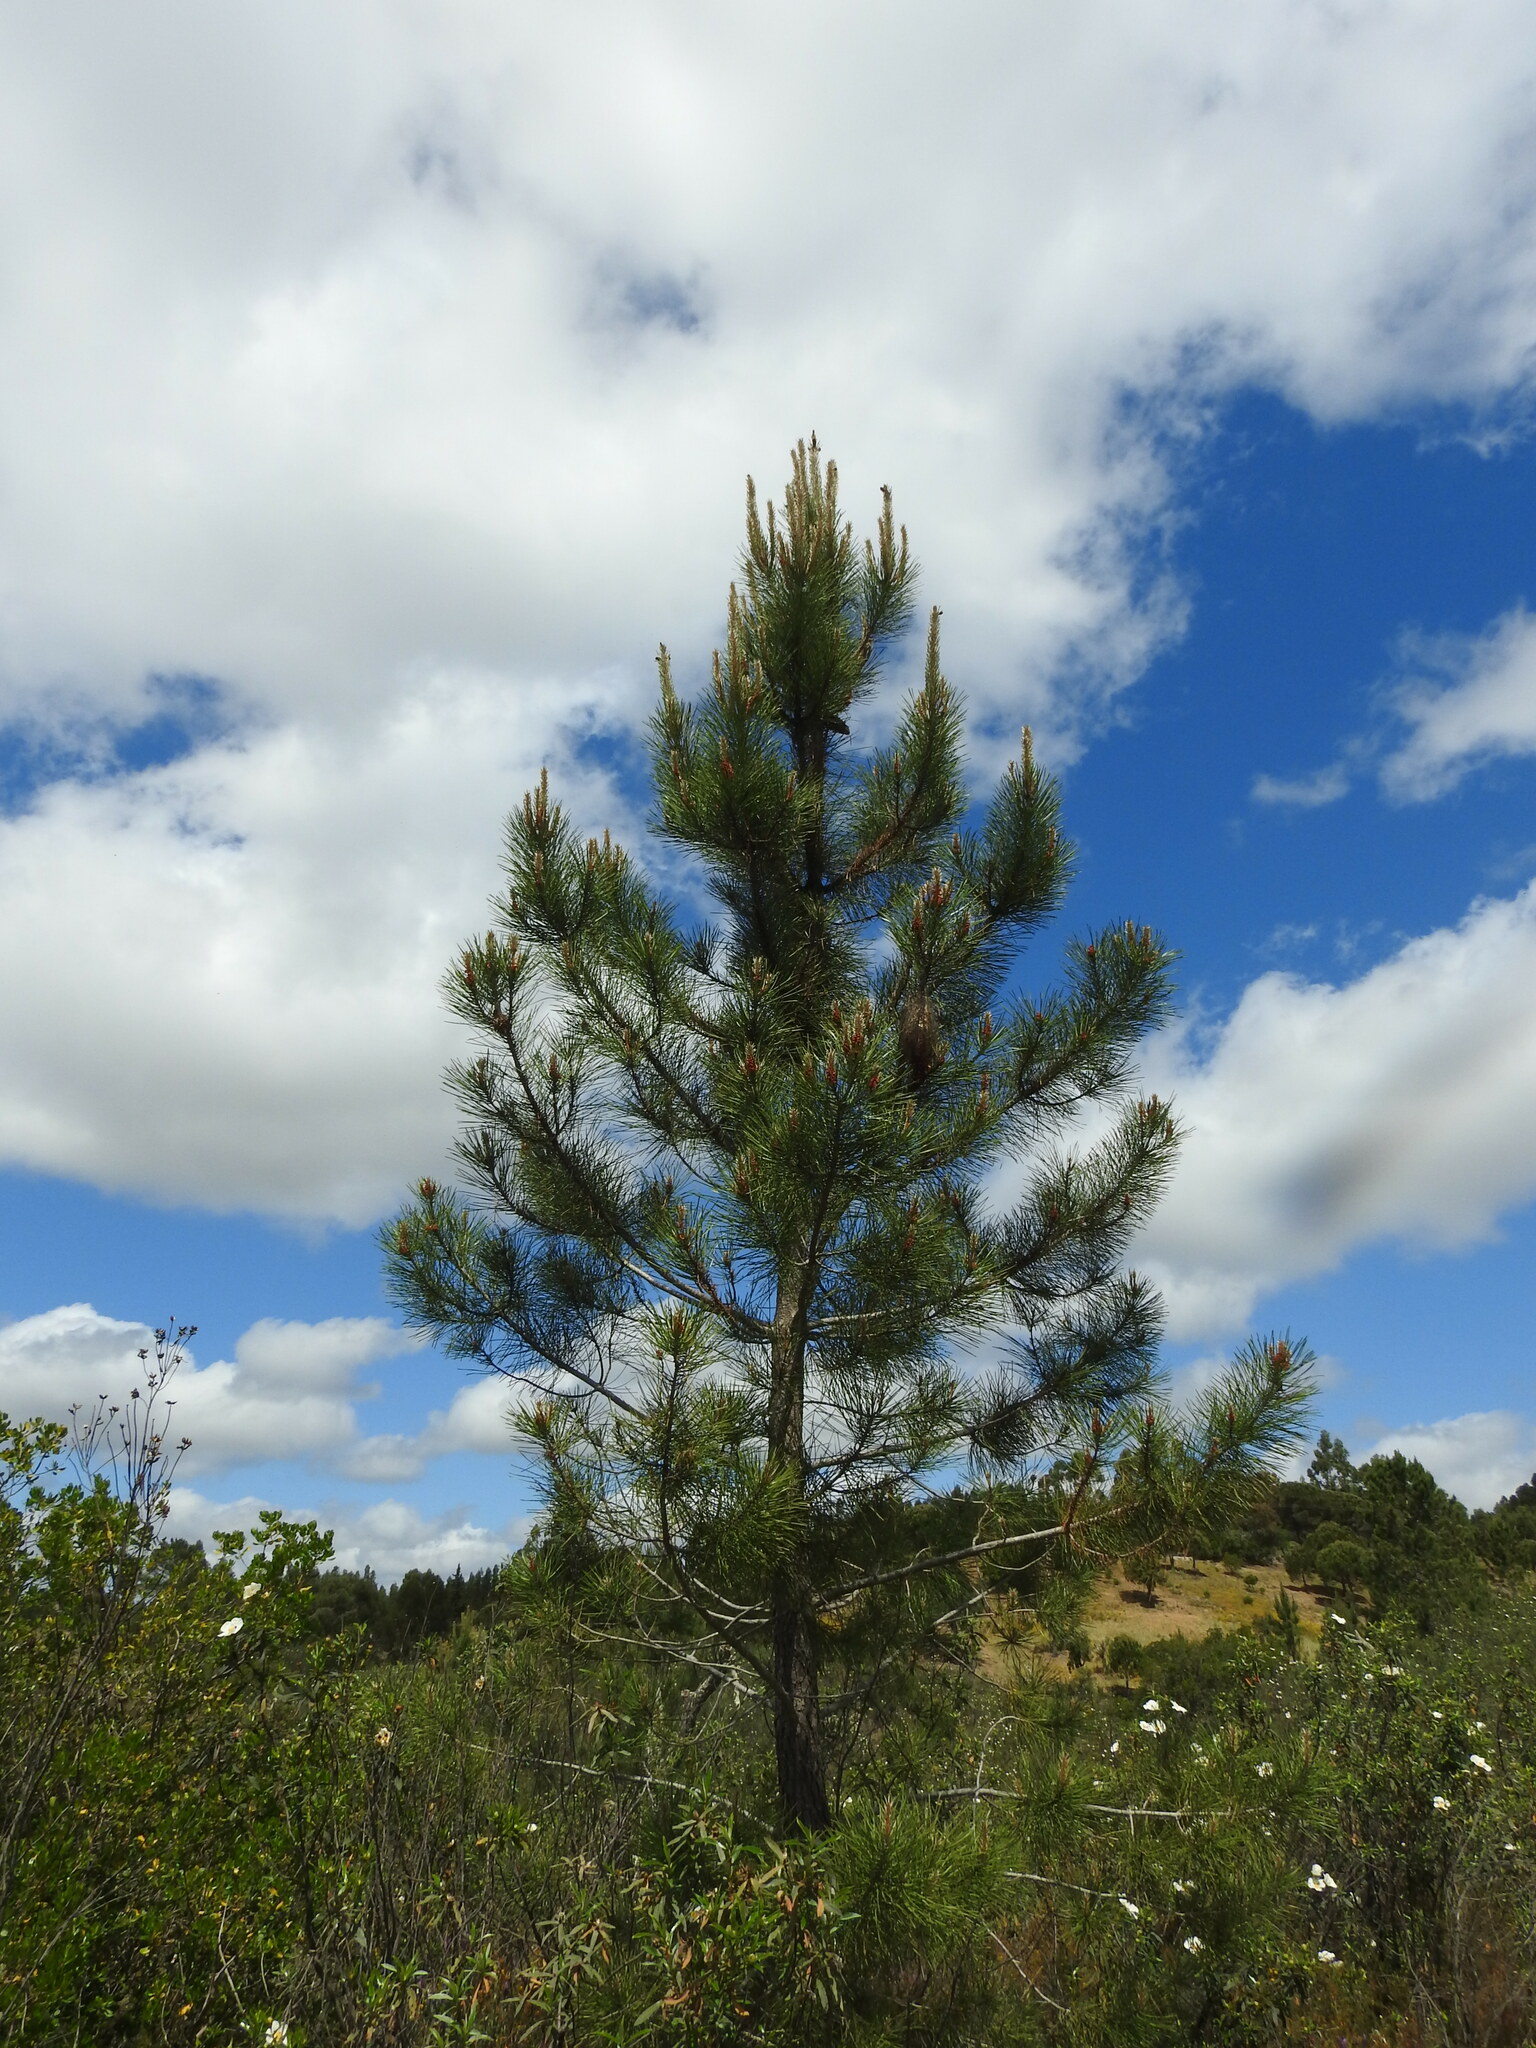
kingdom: Plantae
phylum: Tracheophyta
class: Pinopsida
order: Pinales
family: Pinaceae
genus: Pinus
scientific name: Pinus pinaster
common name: Maritime pine
